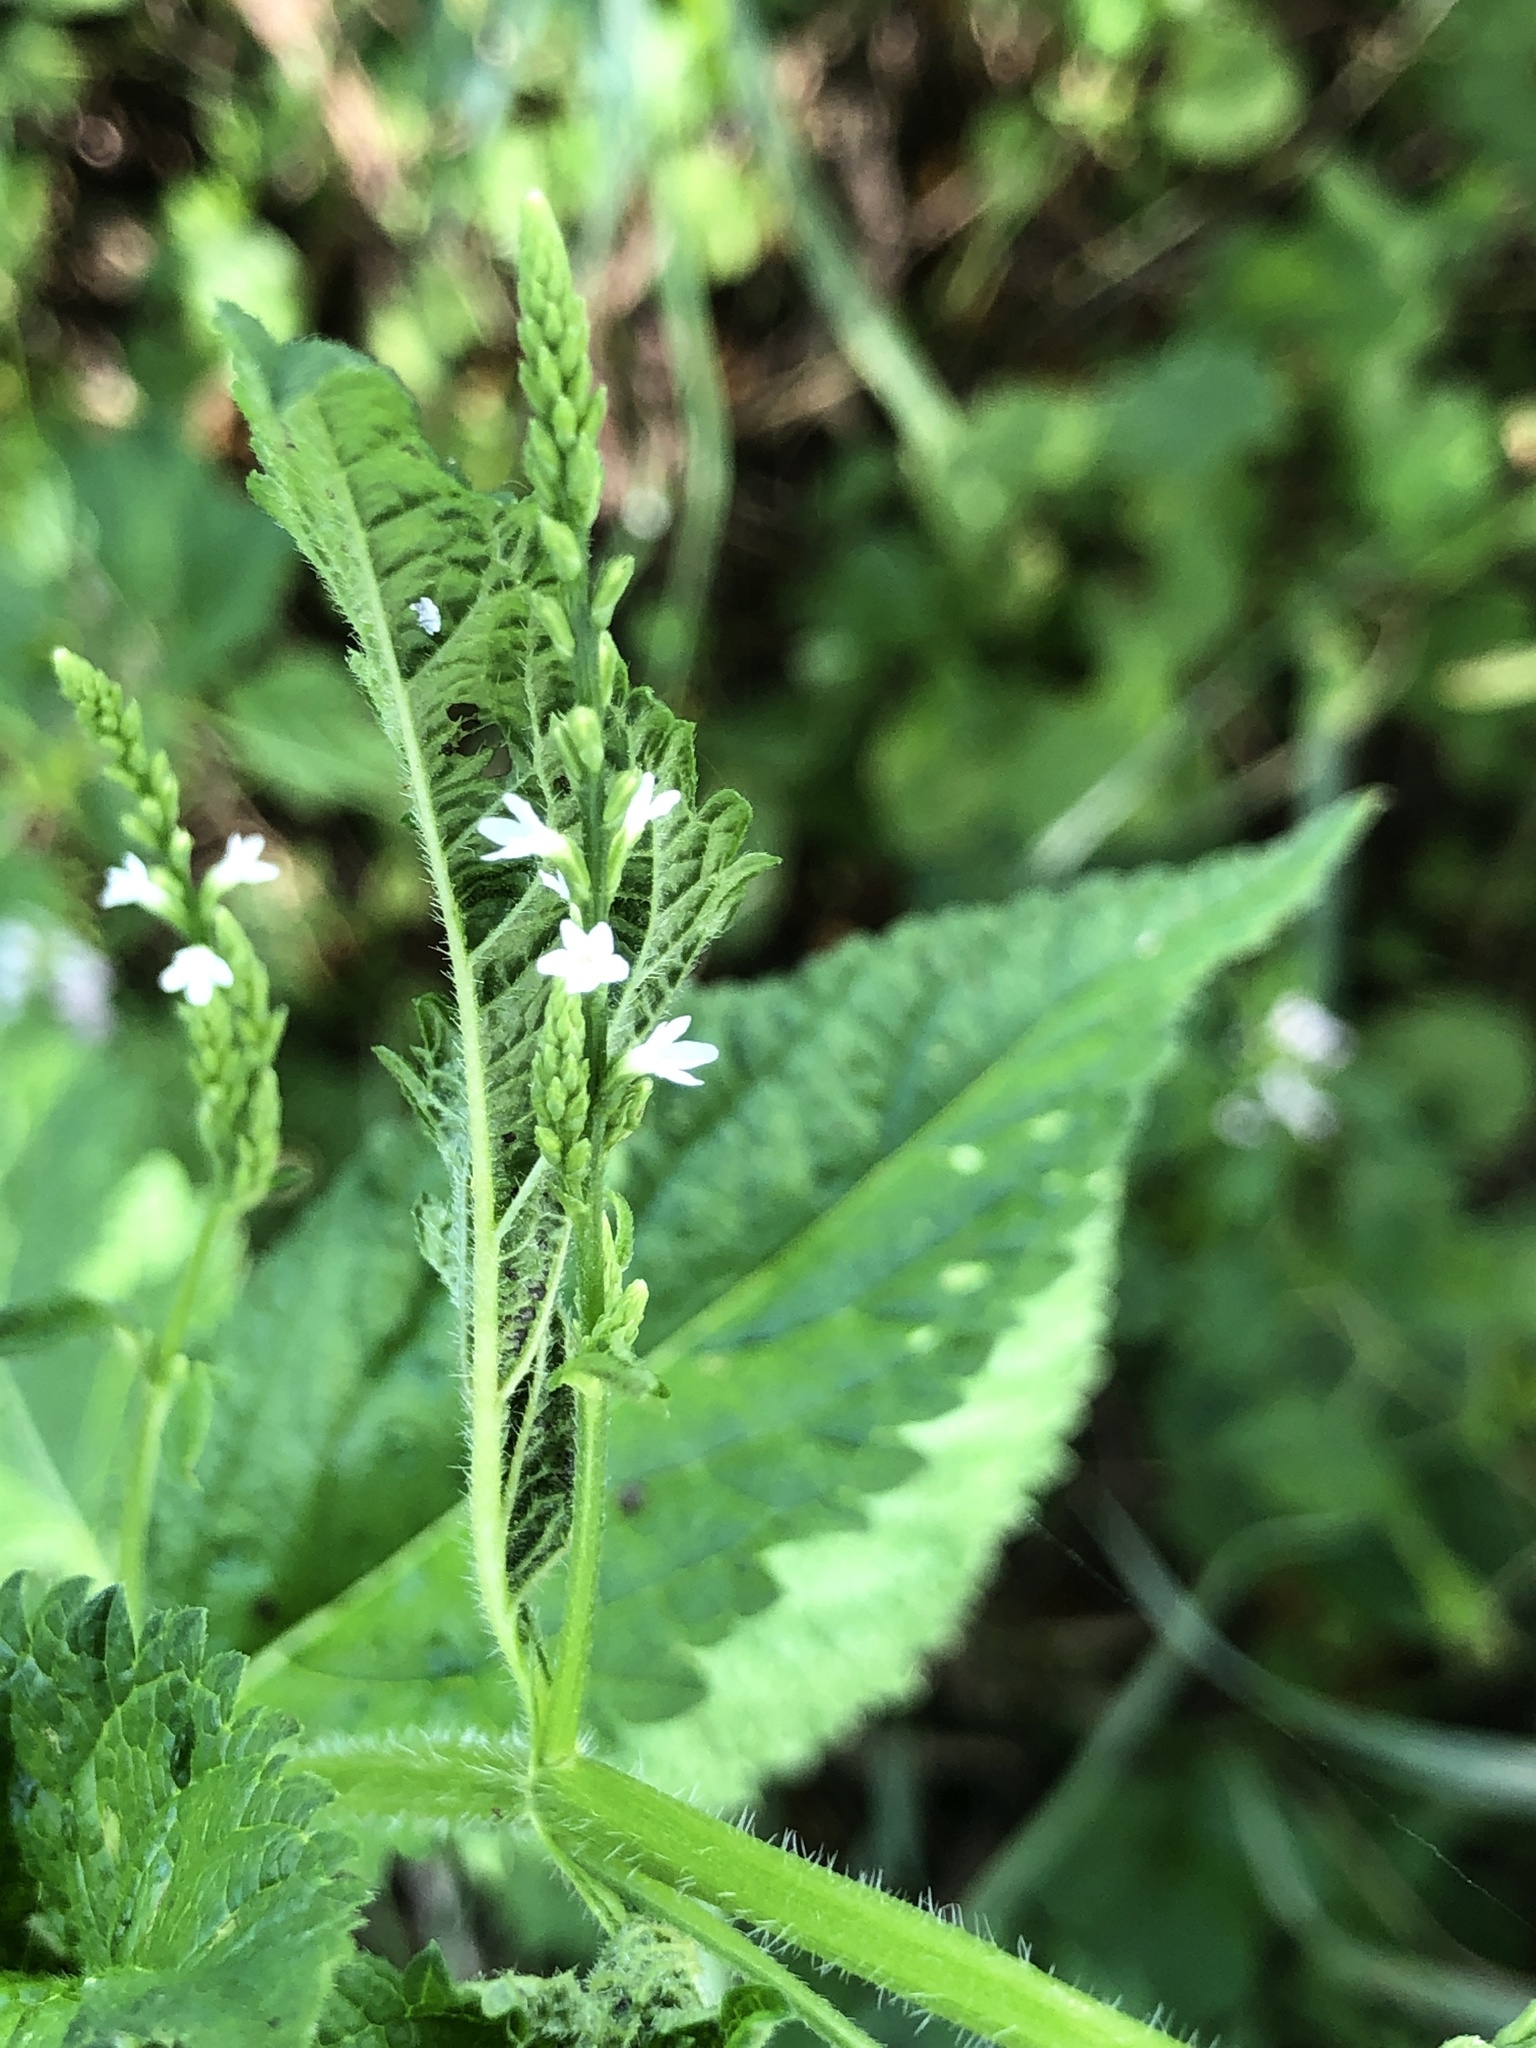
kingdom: Plantae
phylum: Tracheophyta
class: Magnoliopsida
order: Lamiales
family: Verbenaceae
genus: Verbena
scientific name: Verbena urticifolia
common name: Nettle-leaved vervain
